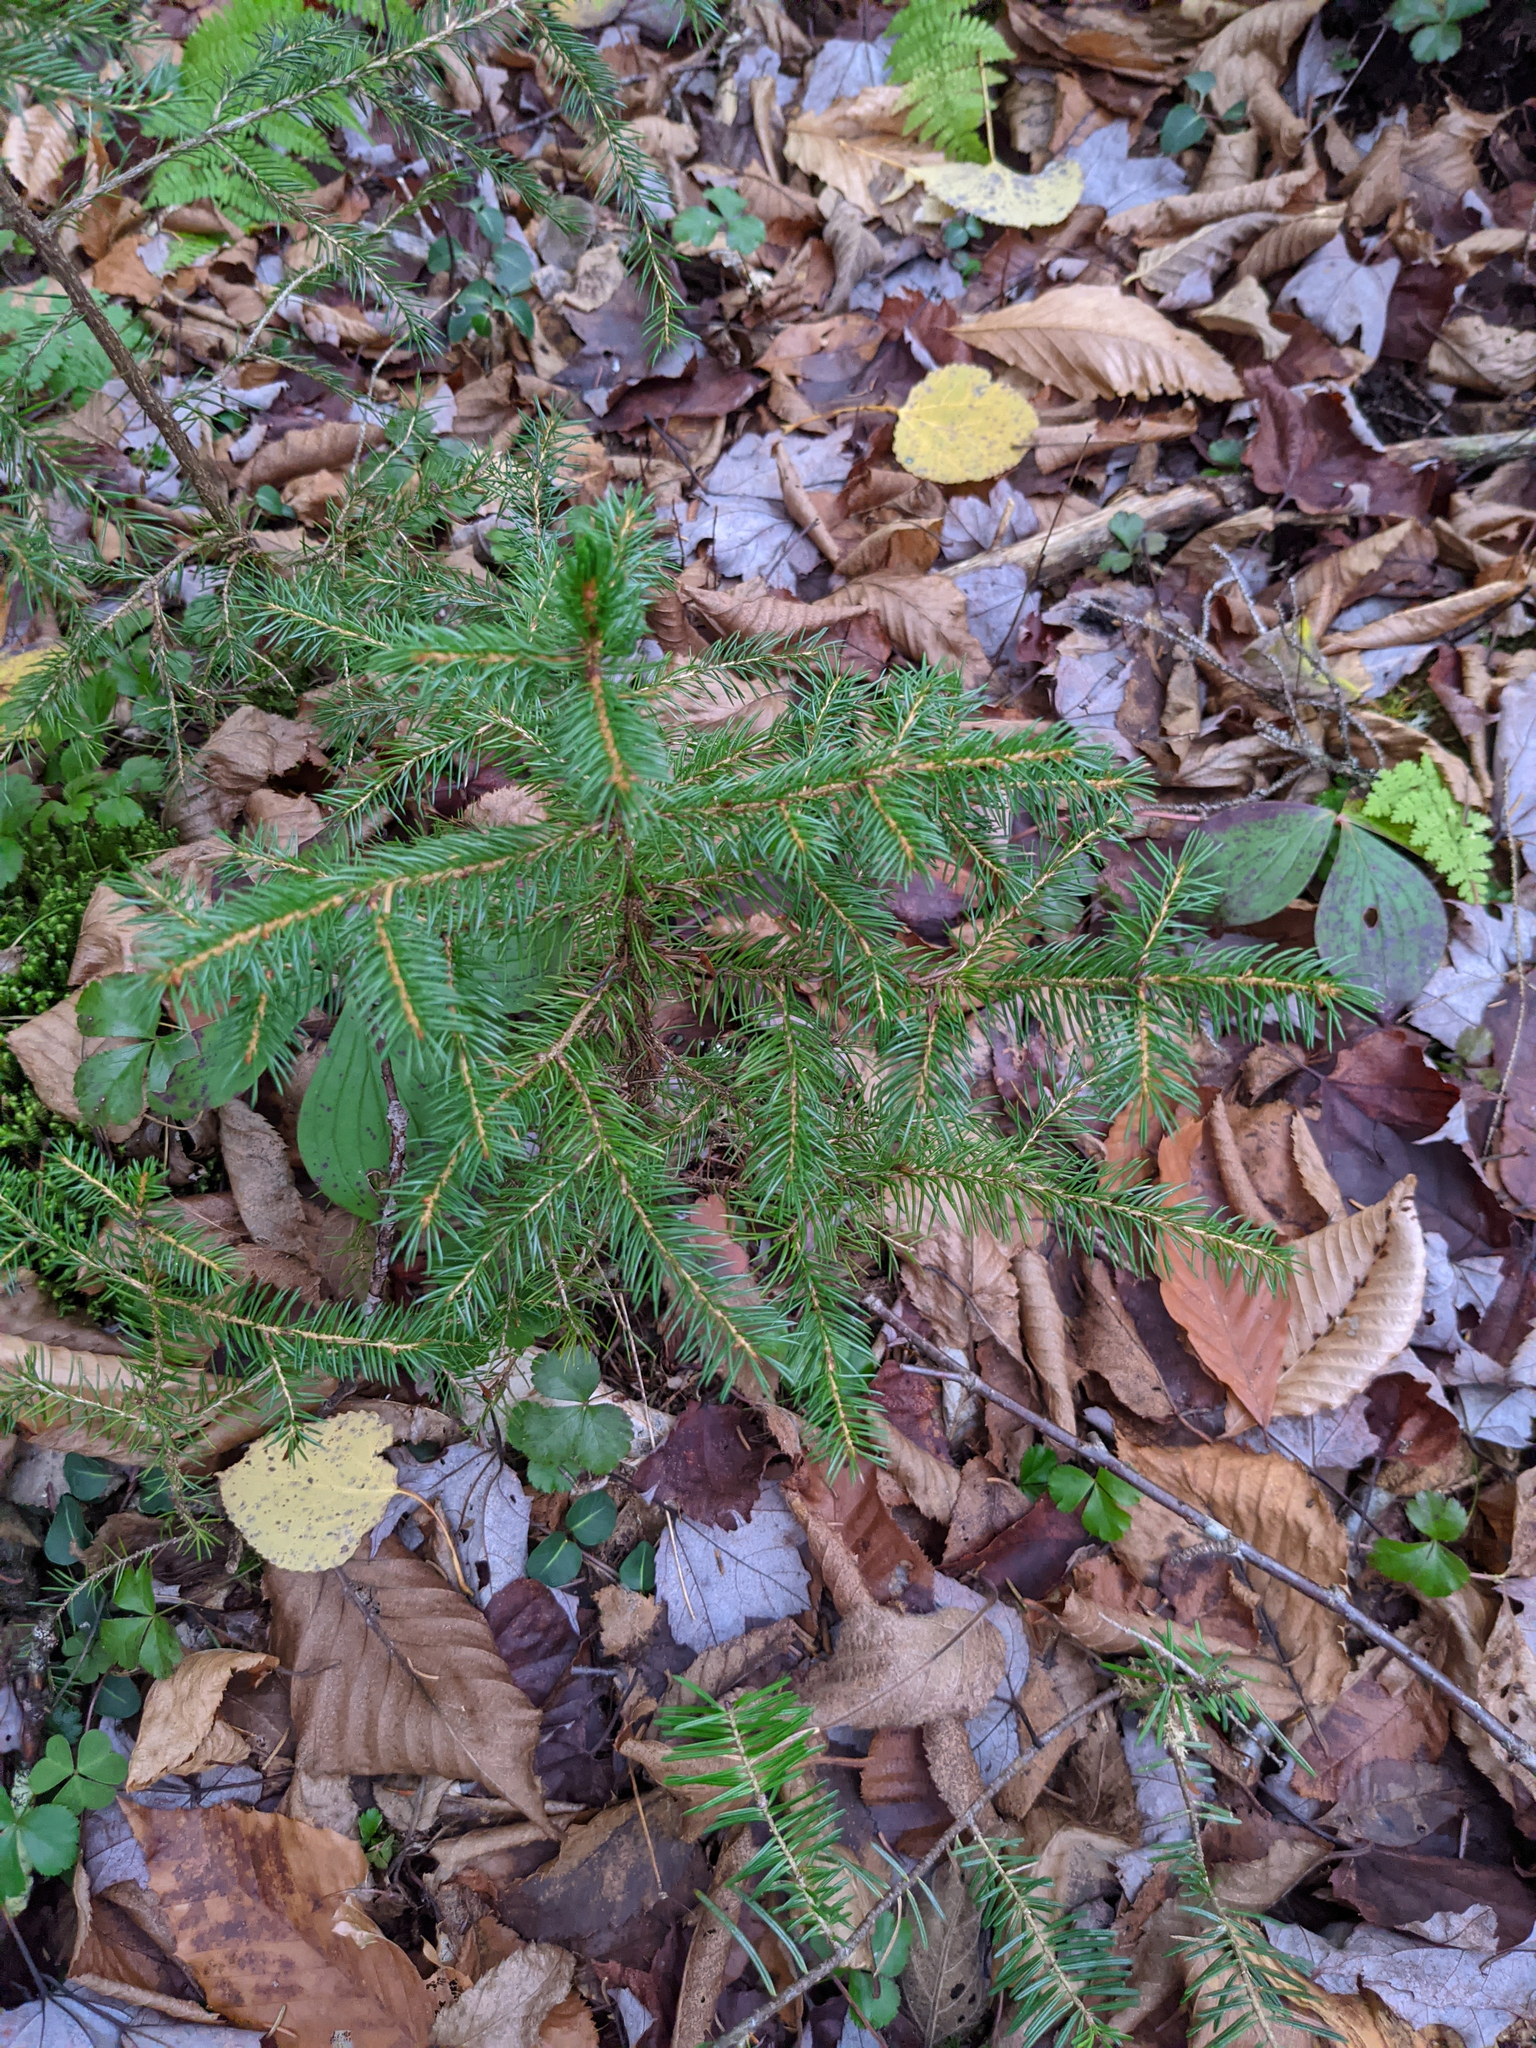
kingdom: Plantae
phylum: Tracheophyta
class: Pinopsida
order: Pinales
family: Pinaceae
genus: Picea
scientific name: Picea rubens
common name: Red spruce
